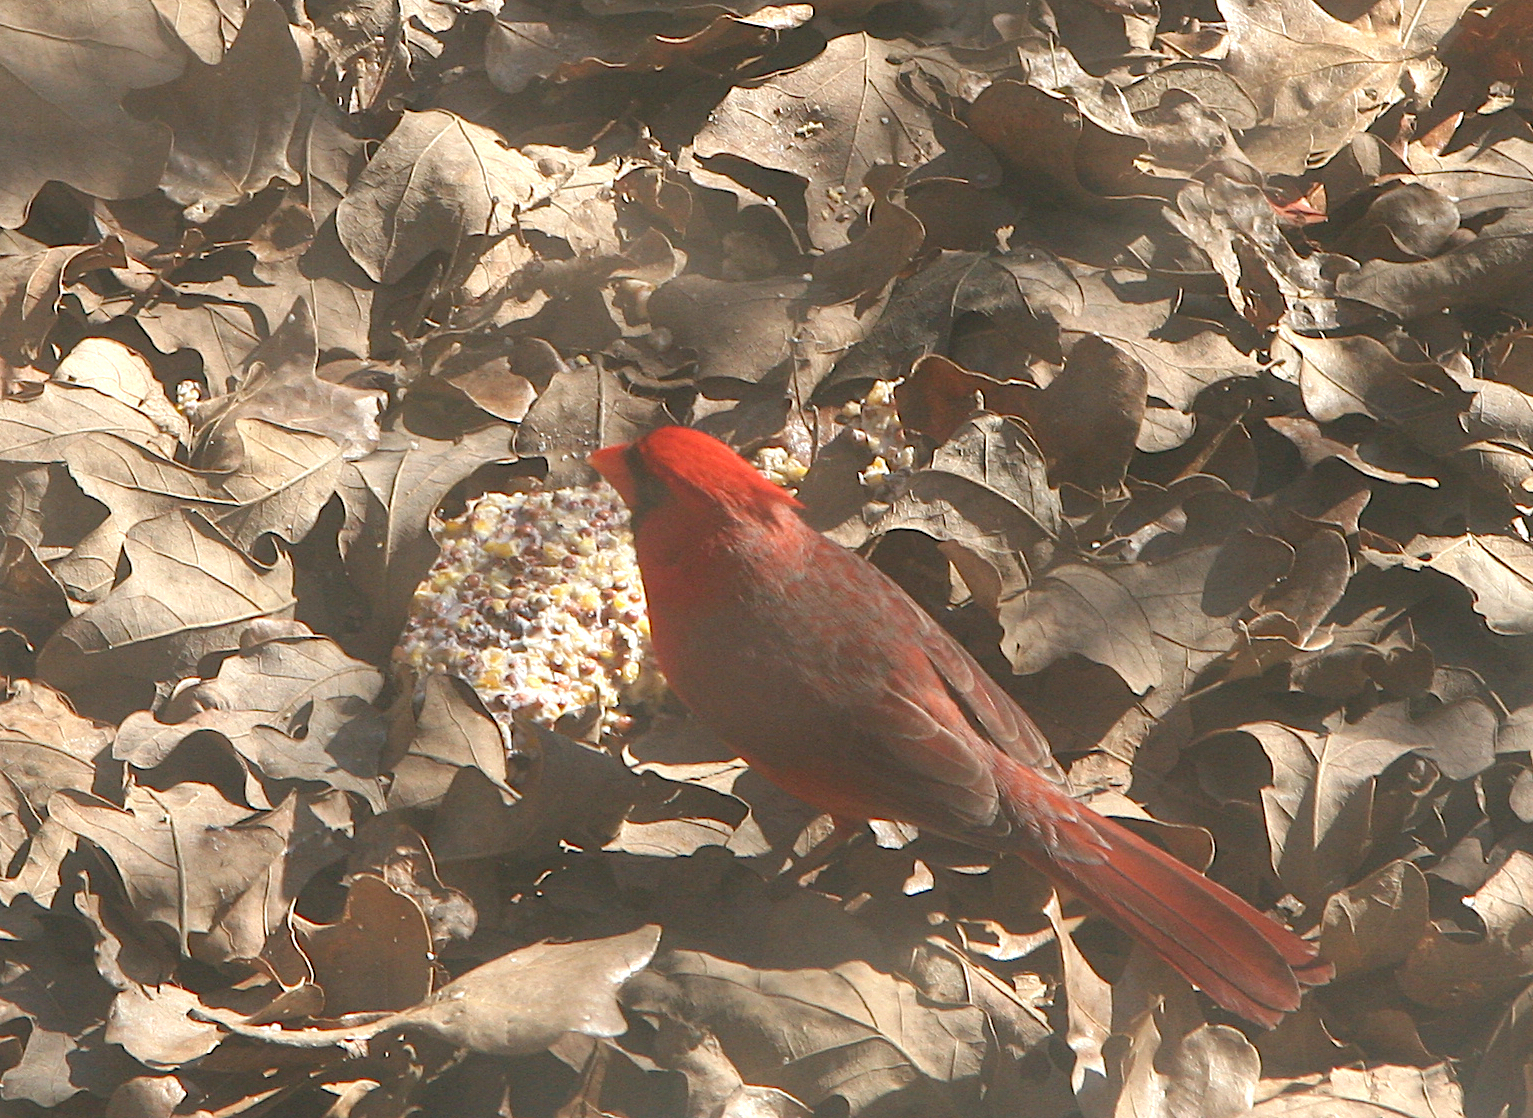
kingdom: Animalia
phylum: Chordata
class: Aves
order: Passeriformes
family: Cardinalidae
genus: Cardinalis
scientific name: Cardinalis cardinalis
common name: Northern cardinal
